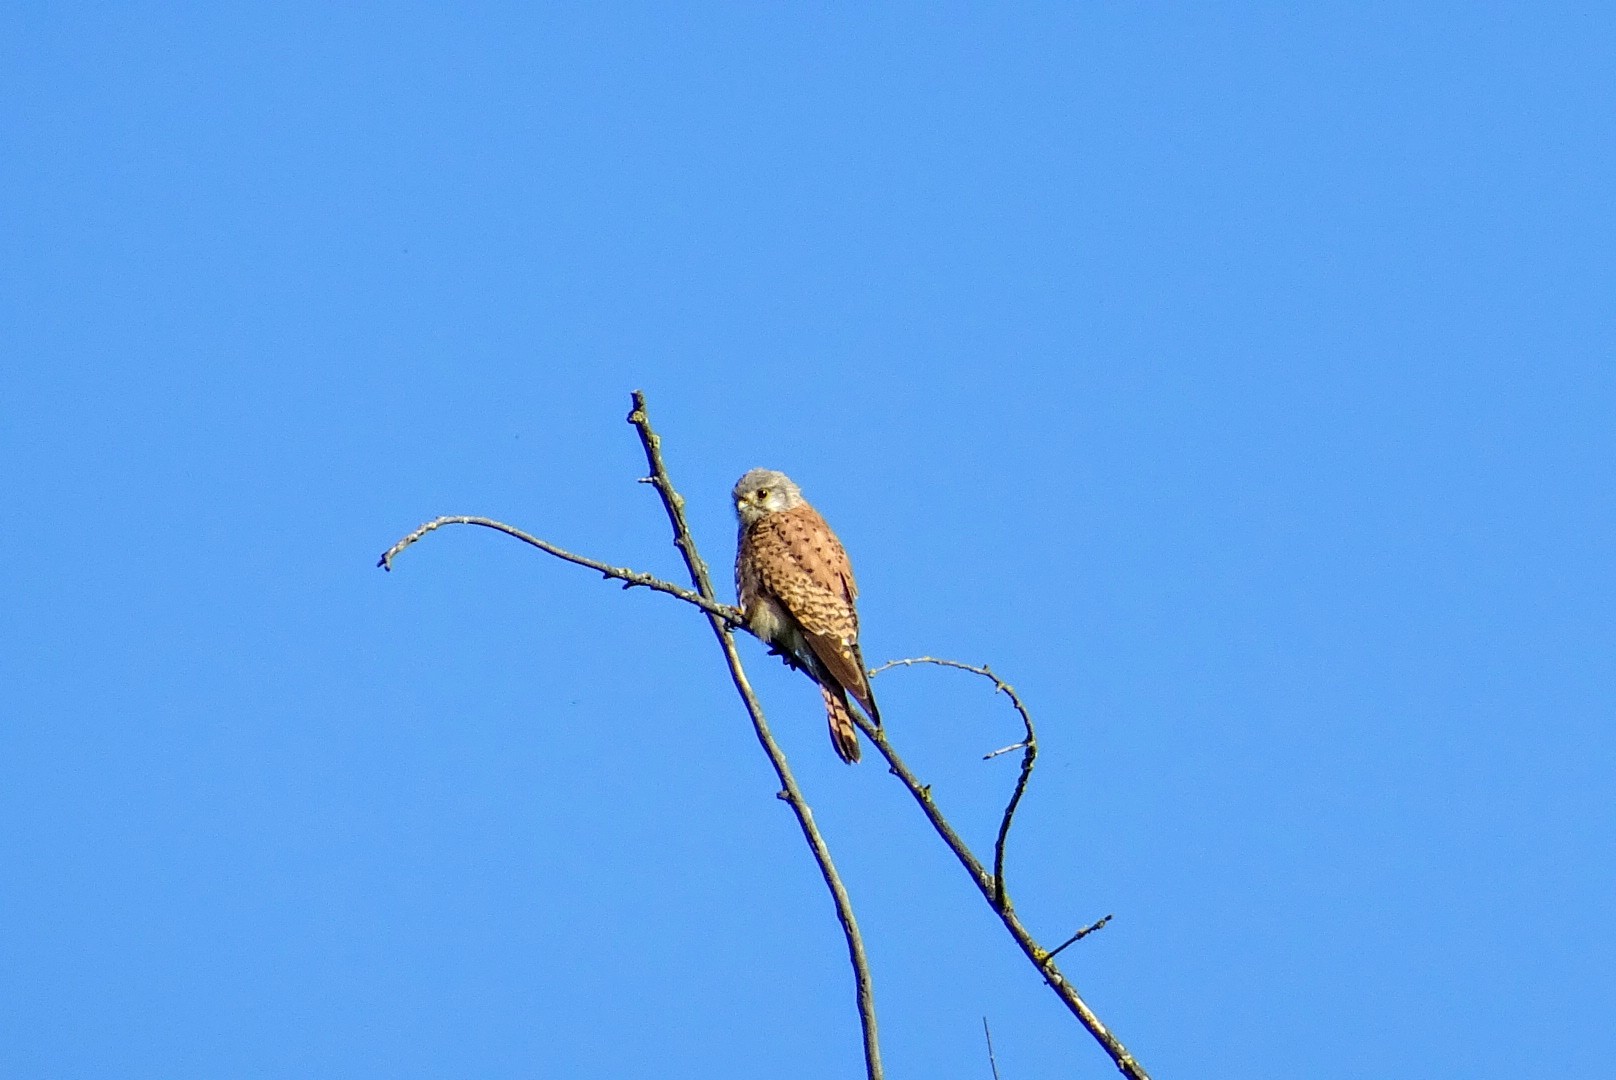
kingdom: Animalia
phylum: Chordata
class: Aves
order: Falconiformes
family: Falconidae
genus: Falco
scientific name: Falco tinnunculus
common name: Common kestrel
